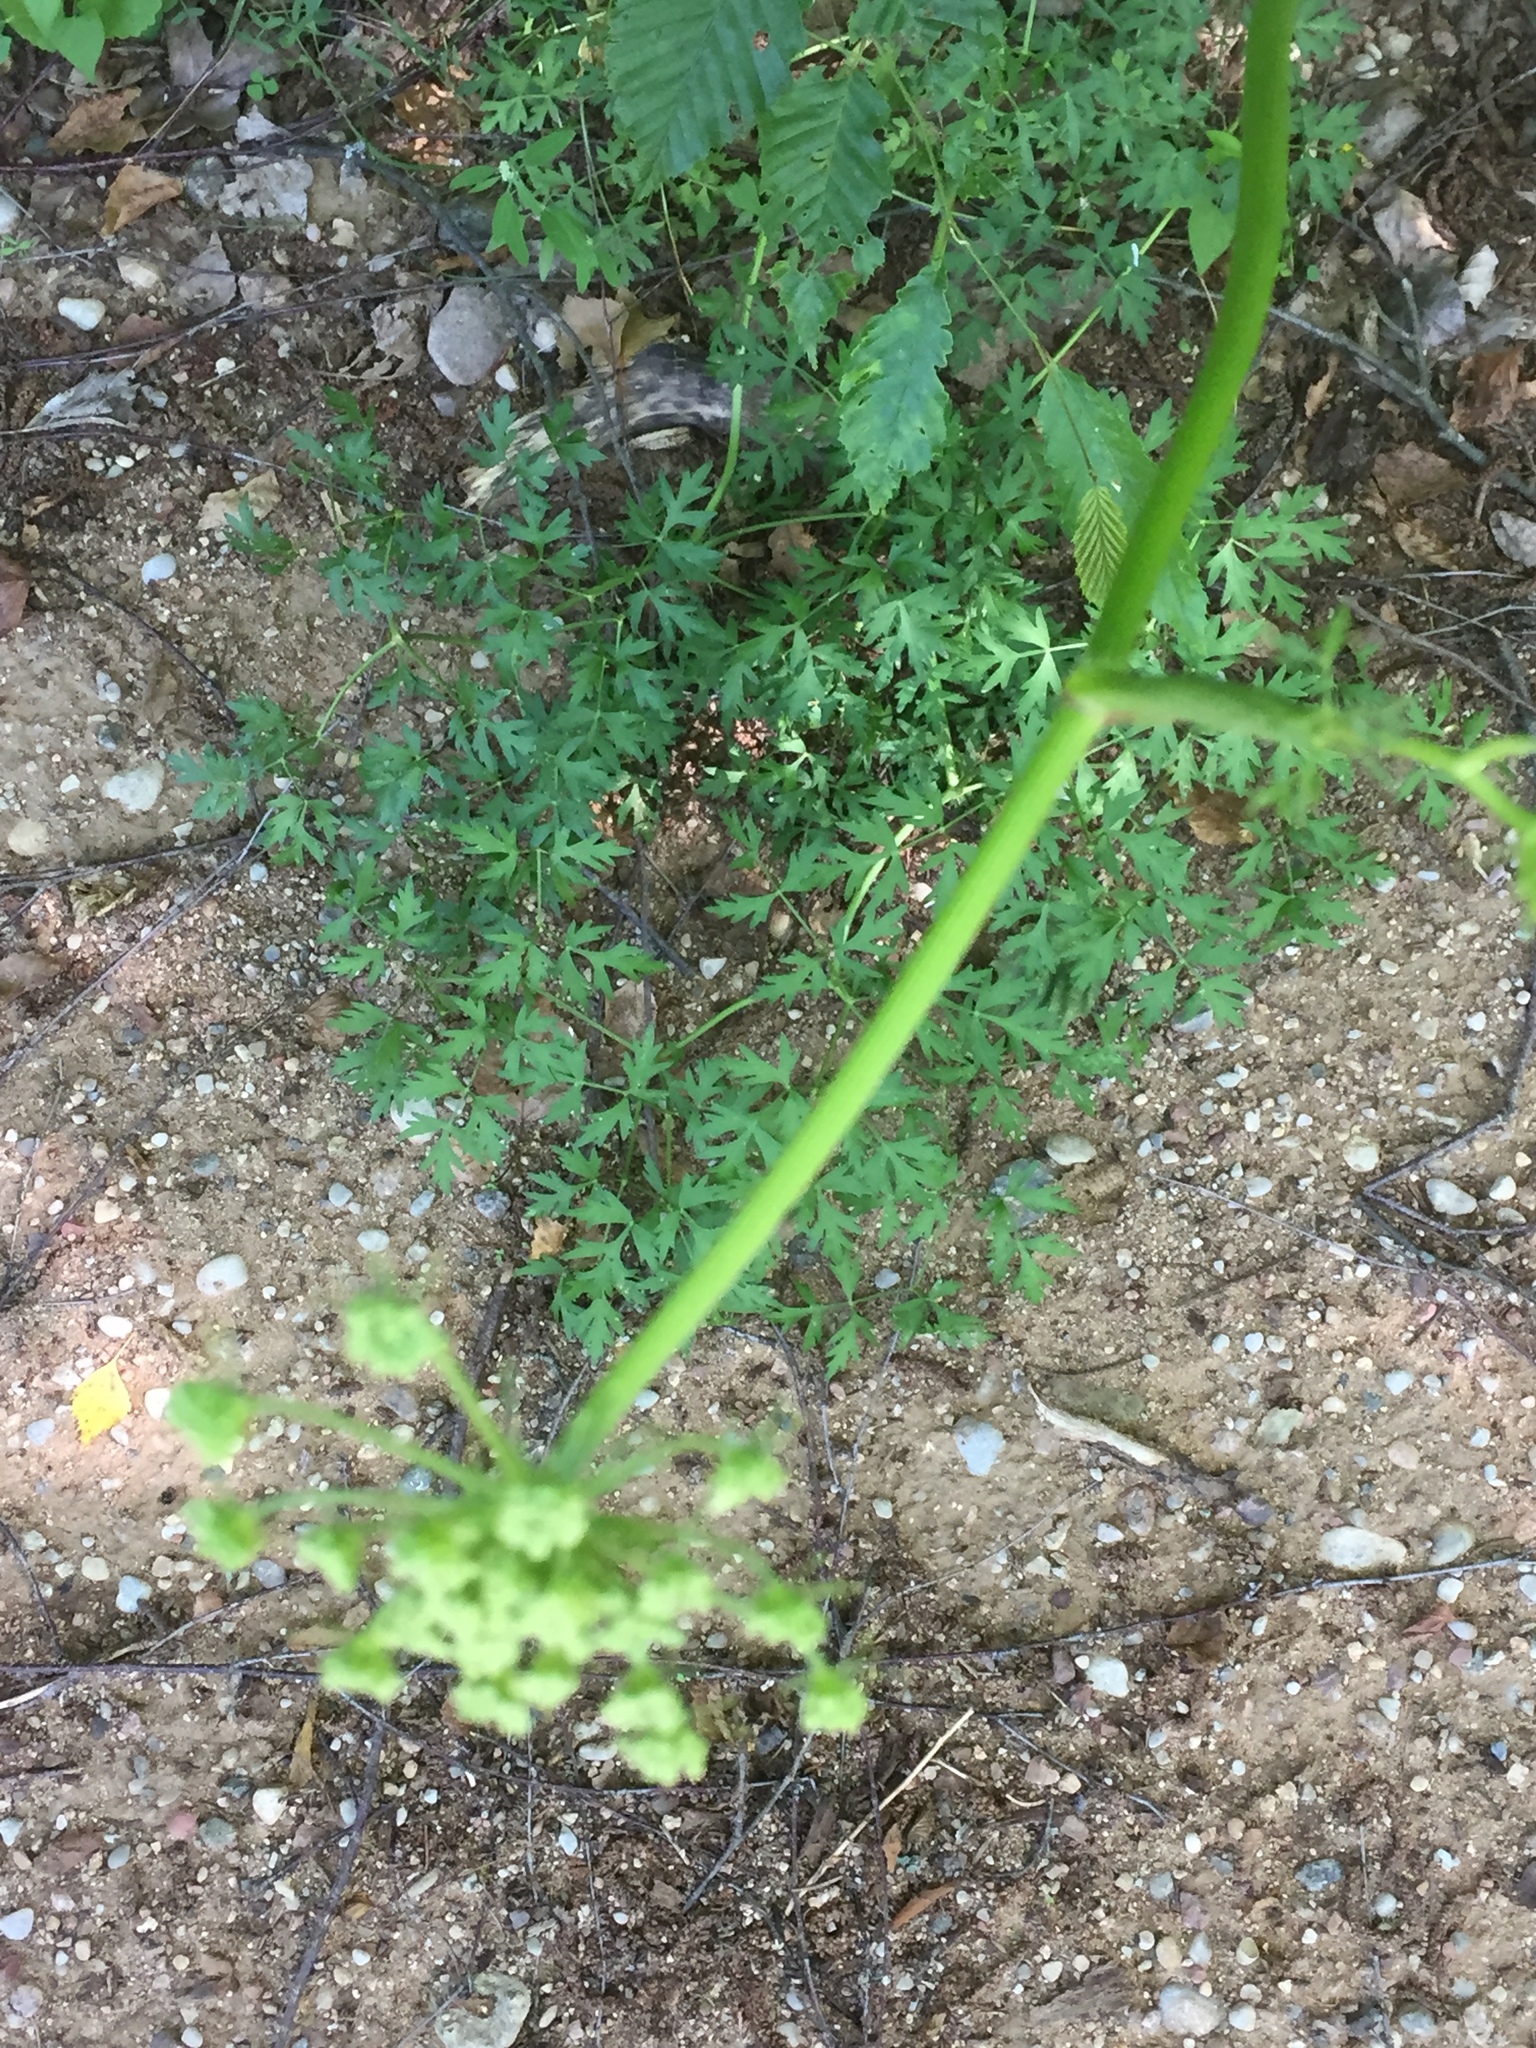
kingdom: Plantae
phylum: Tracheophyta
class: Magnoliopsida
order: Apiales
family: Apiaceae
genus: Oreoselinum
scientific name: Oreoselinum nigrum
